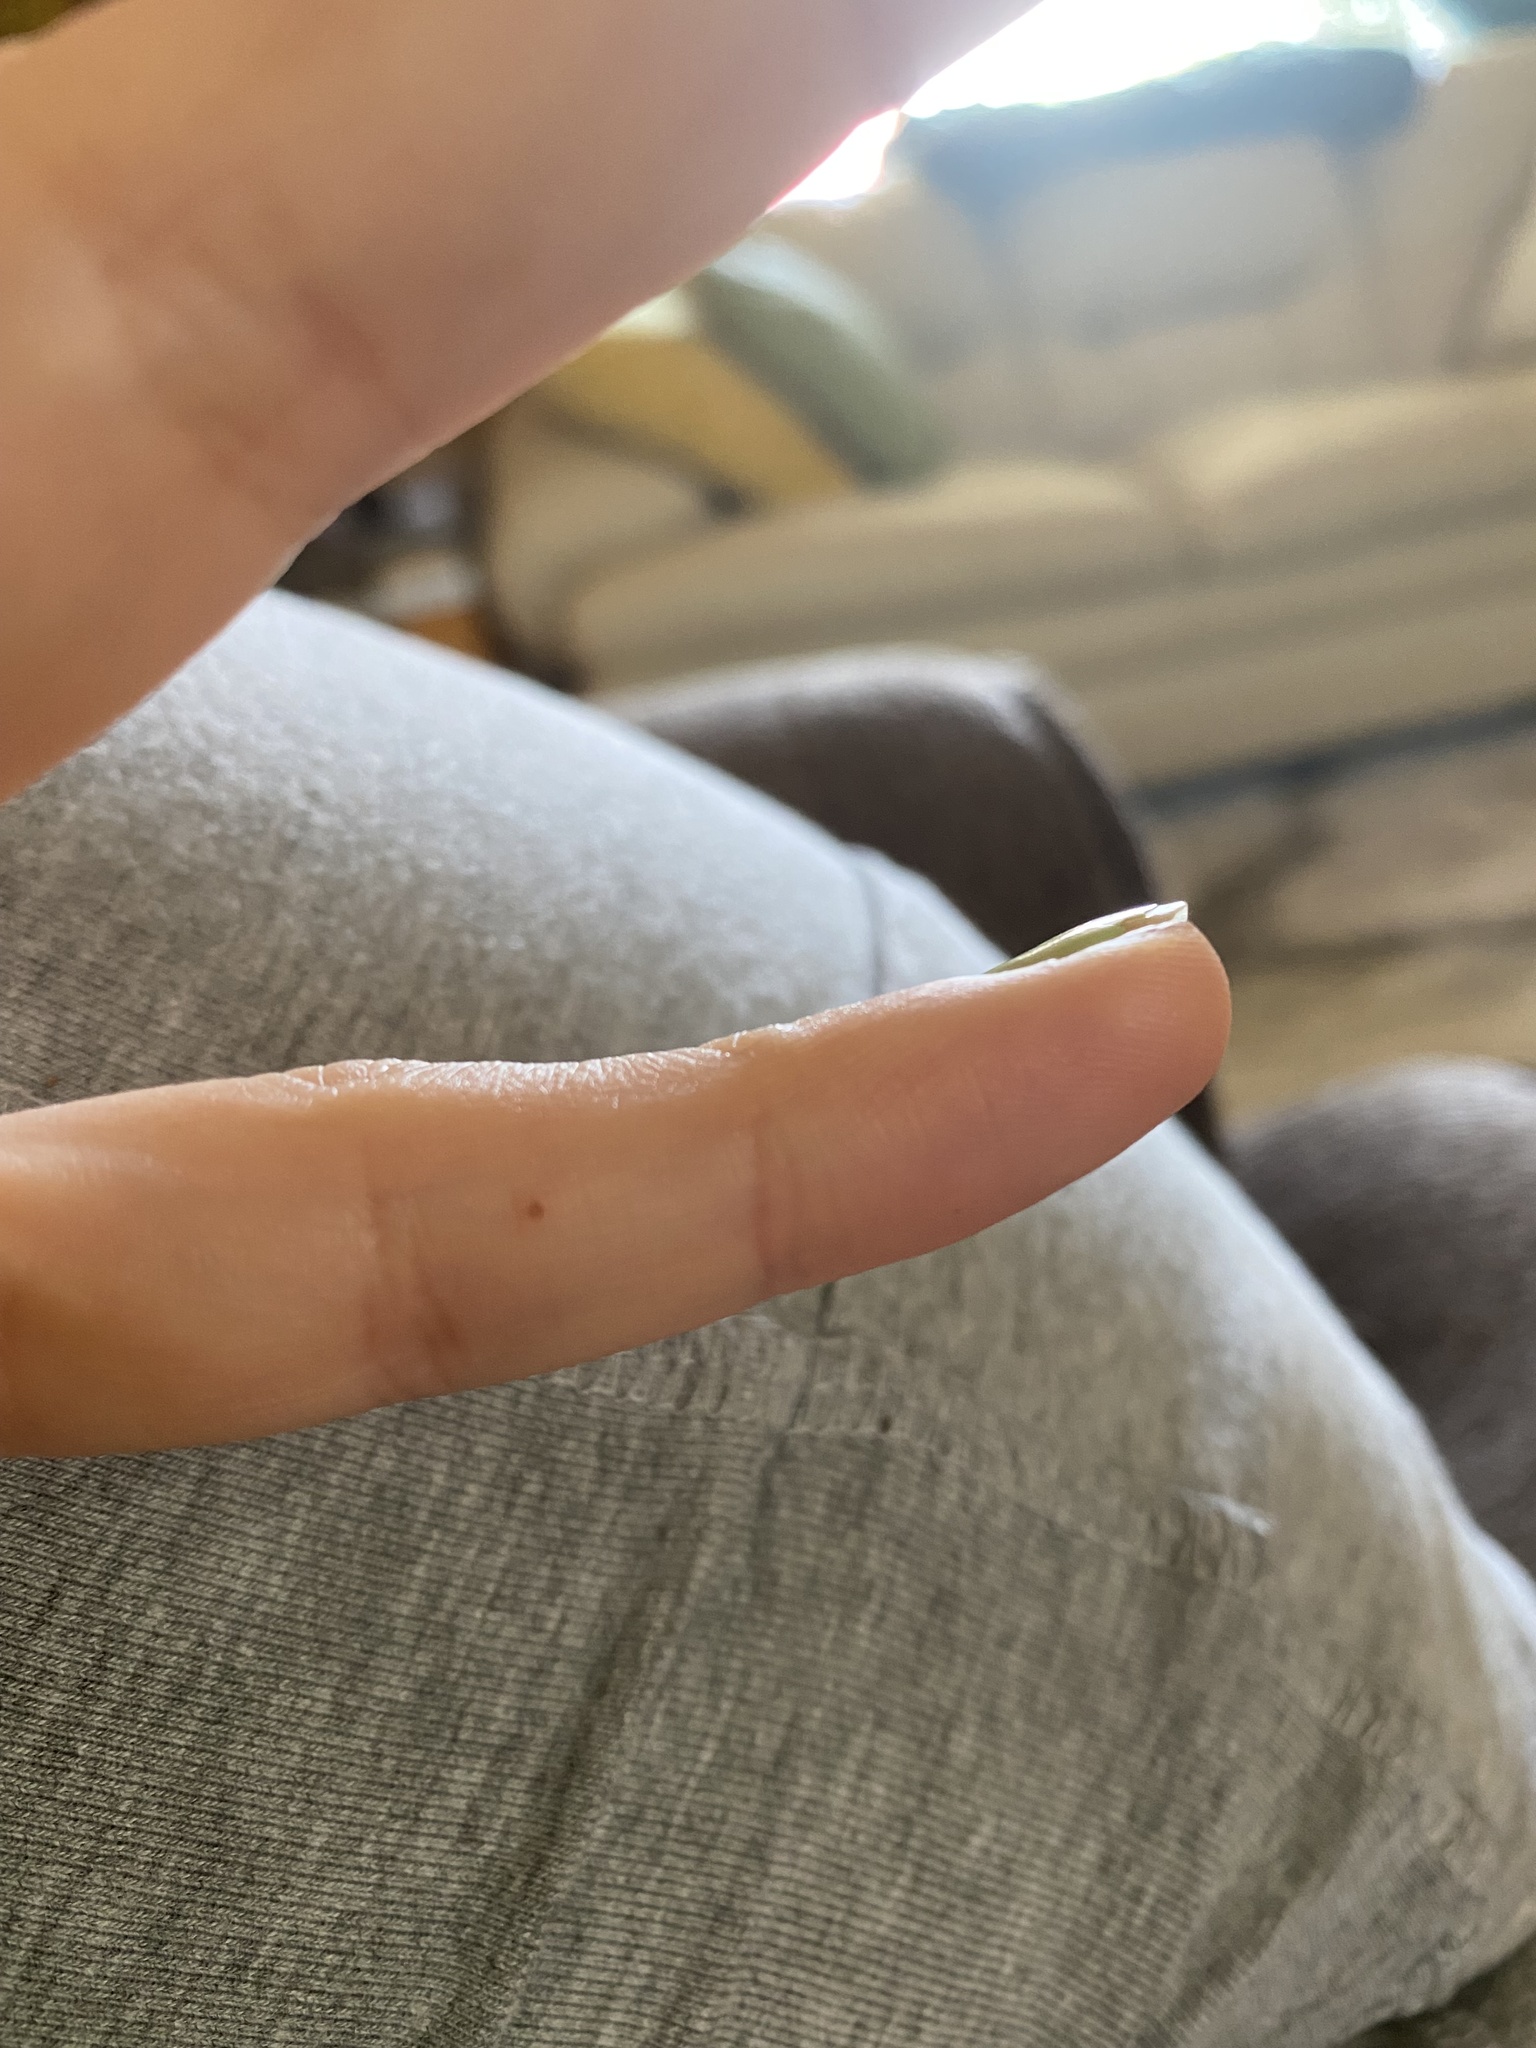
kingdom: Animalia
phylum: Arthropoda
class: Insecta
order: Hymenoptera
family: Formicidae
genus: Solenopsis
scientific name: Solenopsis invicta
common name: Red imported fire ant
